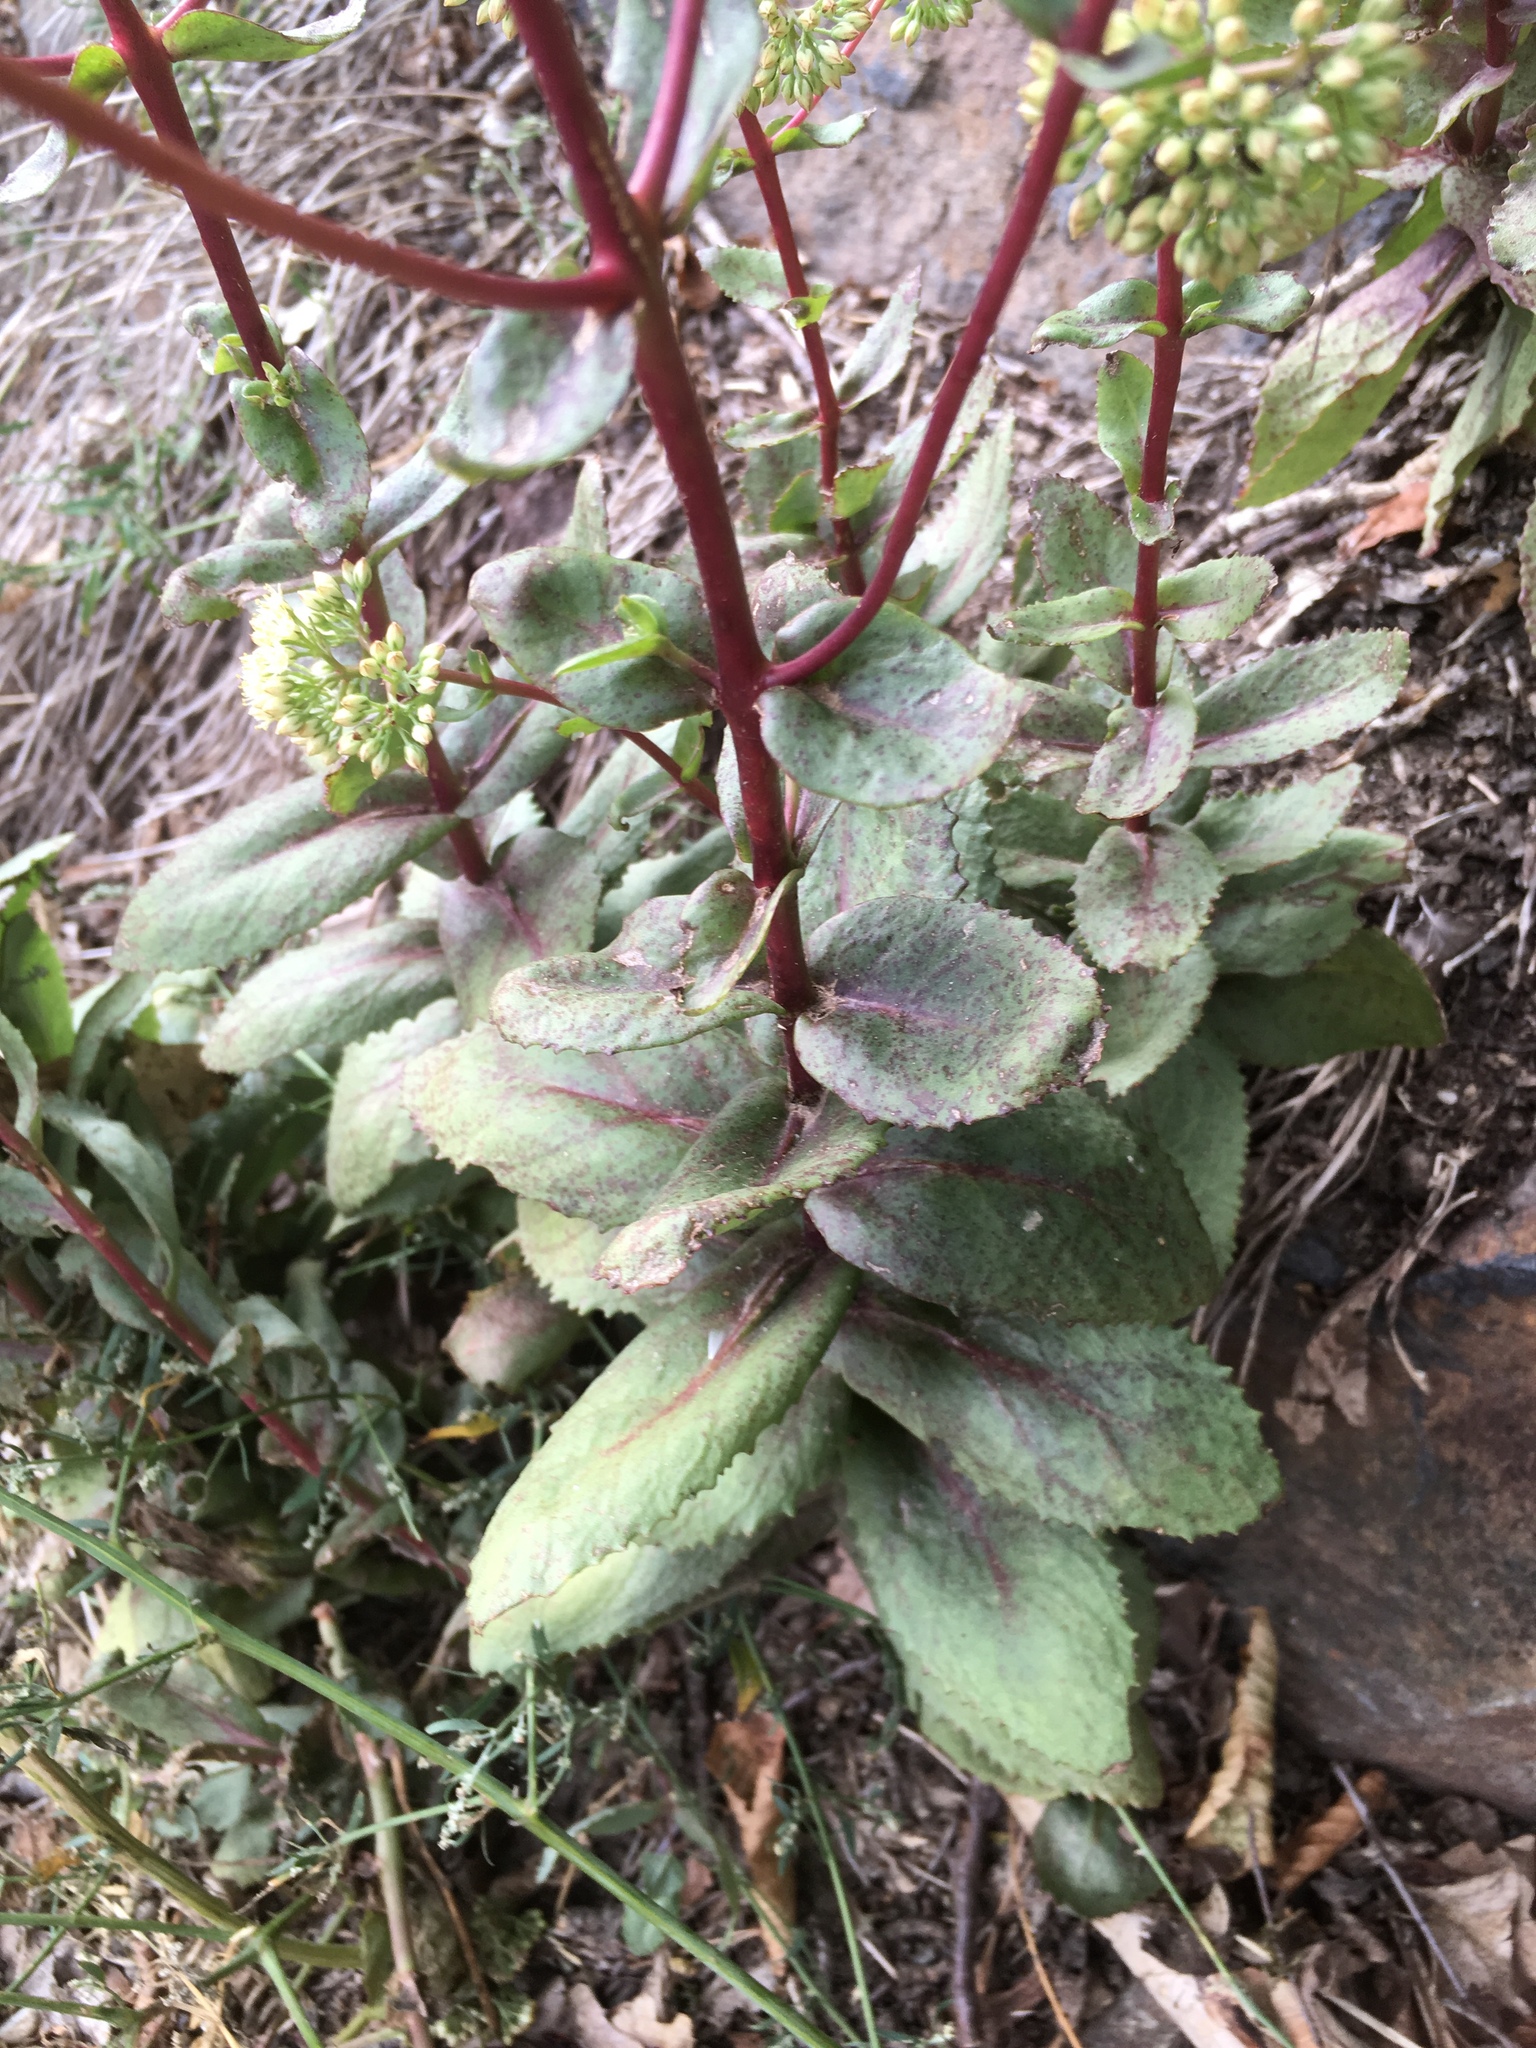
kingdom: Plantae
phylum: Tracheophyta
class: Magnoliopsida
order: Saxifragales
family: Crassulaceae
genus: Hylotelephium
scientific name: Hylotelephium maximum
